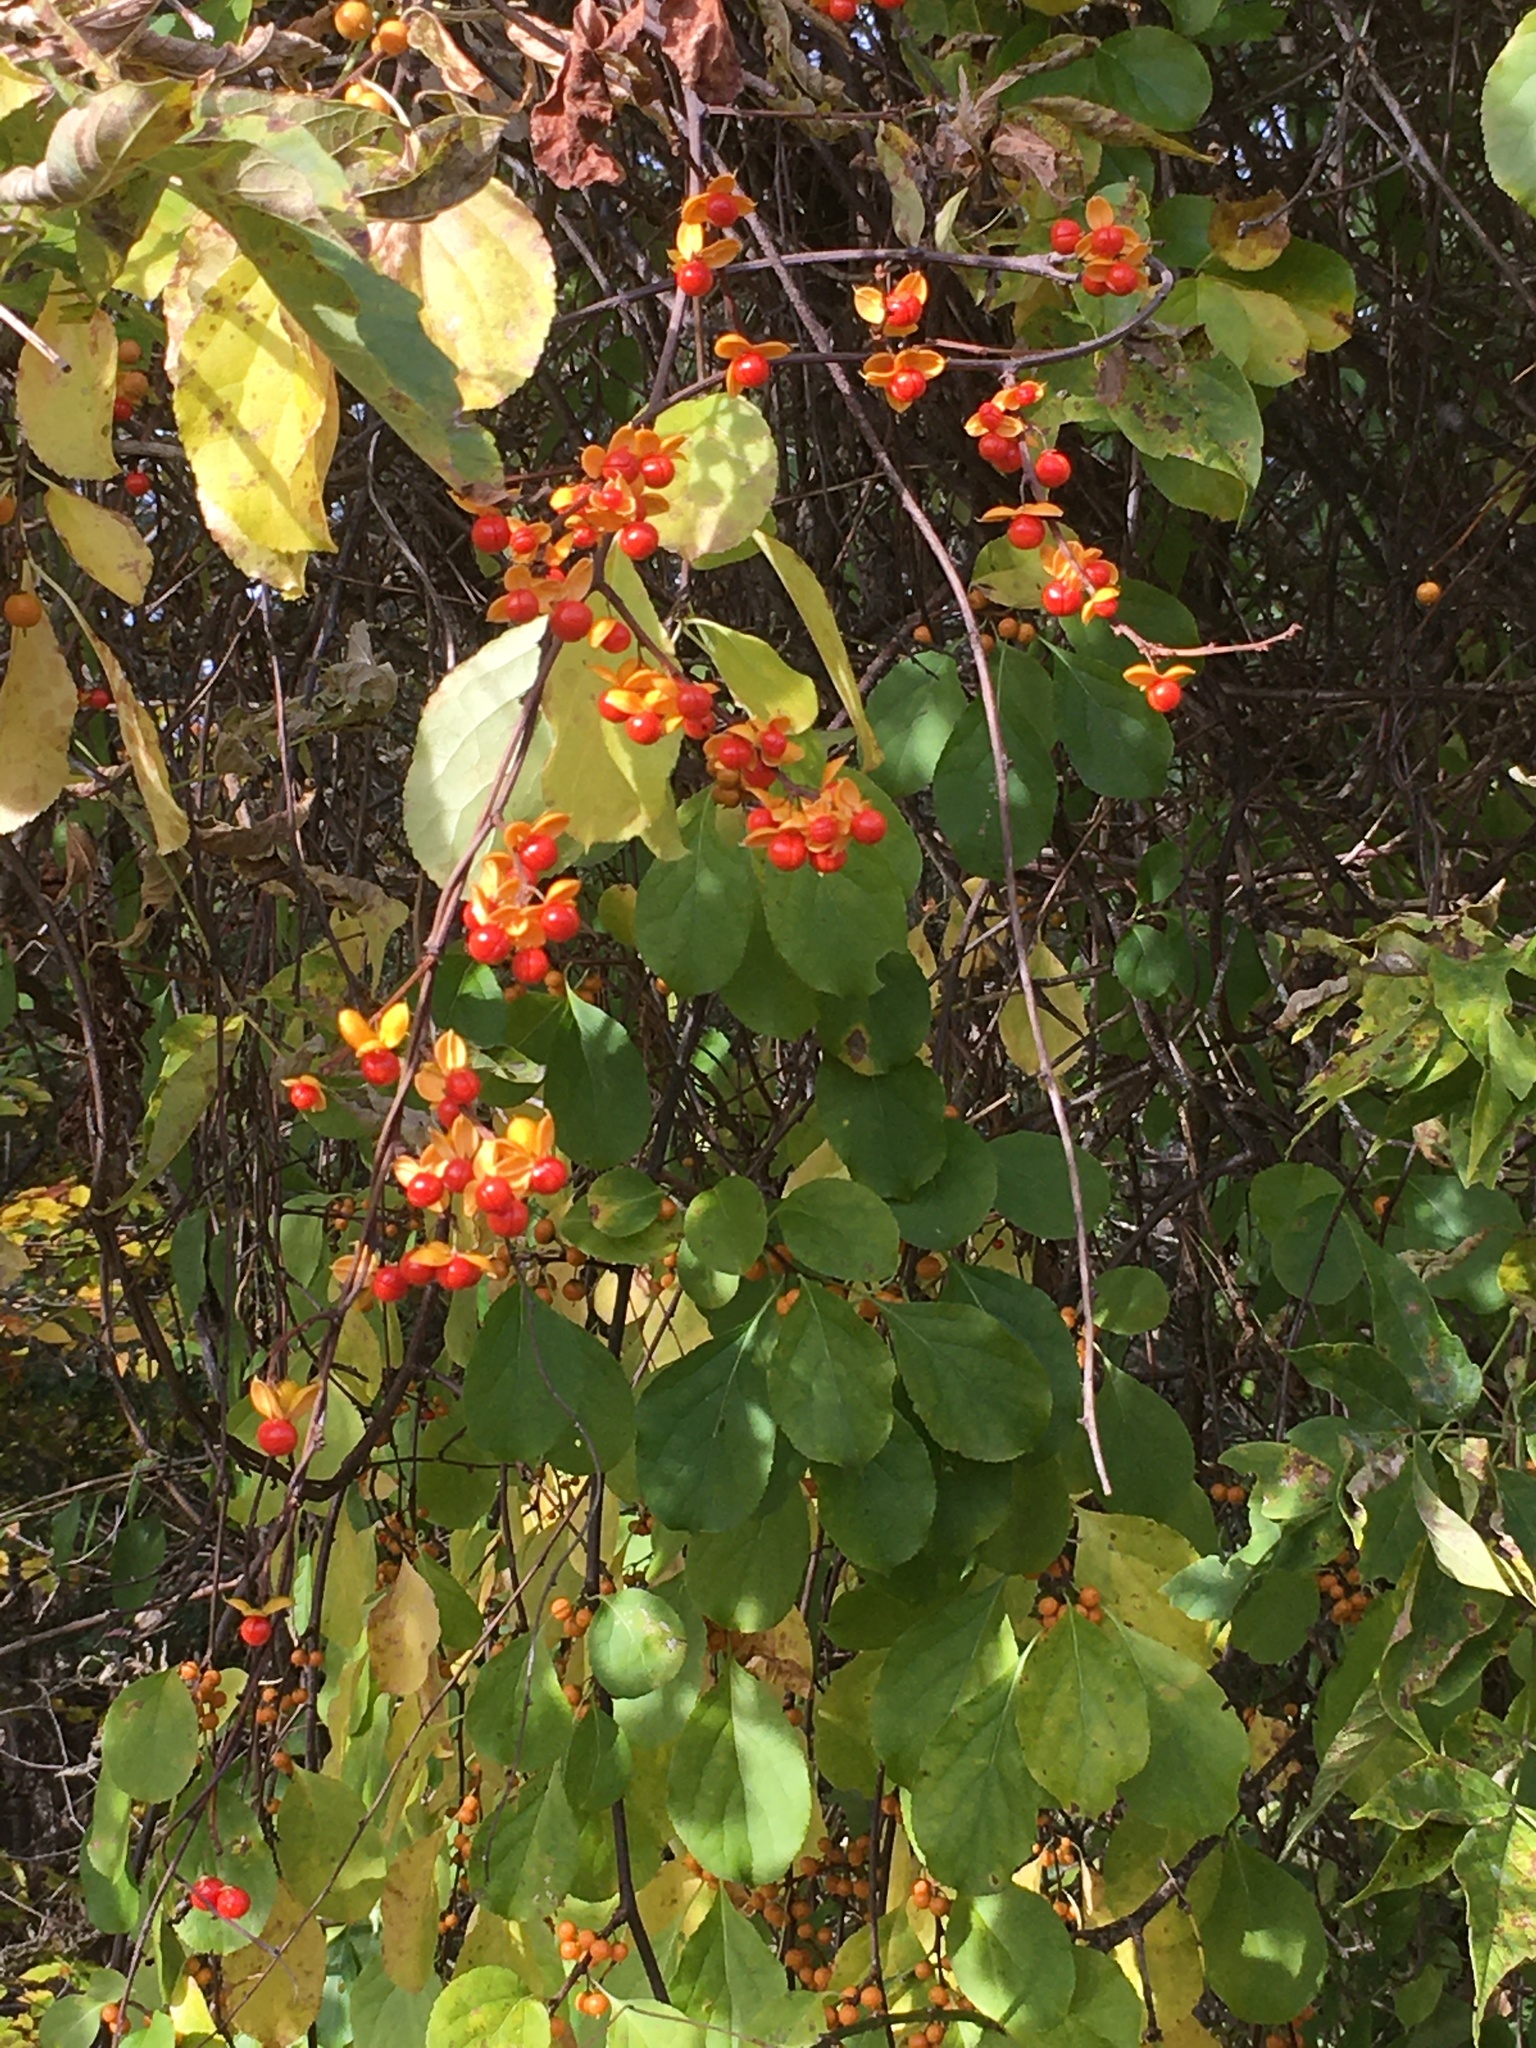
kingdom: Plantae
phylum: Tracheophyta
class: Magnoliopsida
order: Celastrales
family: Celastraceae
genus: Celastrus
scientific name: Celastrus orbiculatus
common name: Oriental bittersweet
